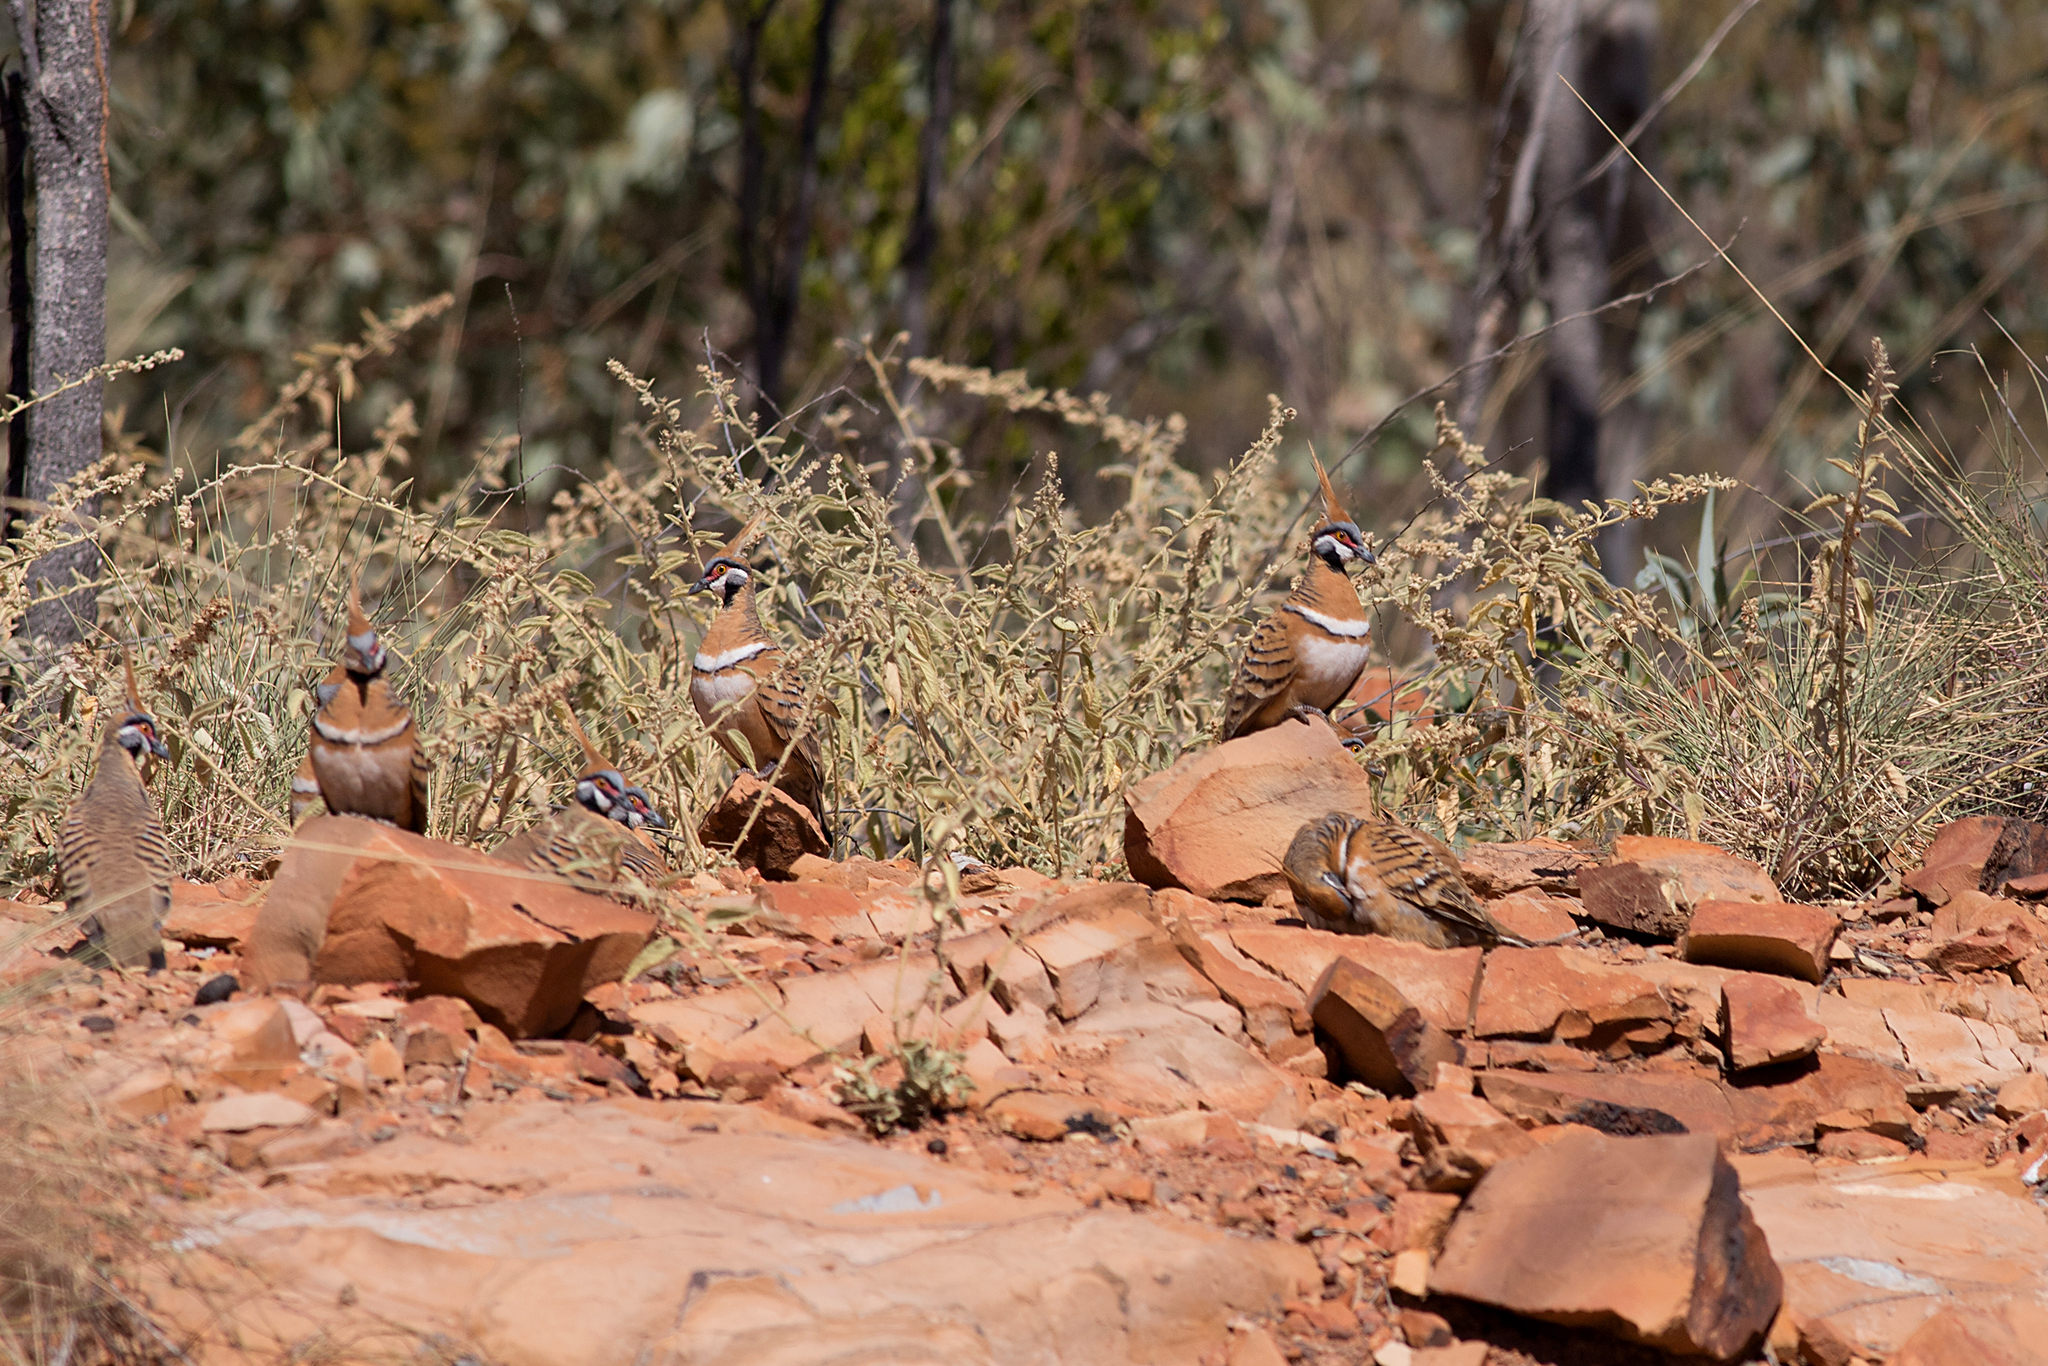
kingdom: Animalia
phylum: Chordata
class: Aves
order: Columbiformes
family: Columbidae
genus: Geophaps
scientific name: Geophaps plumifera
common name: Spinifex pigeon
